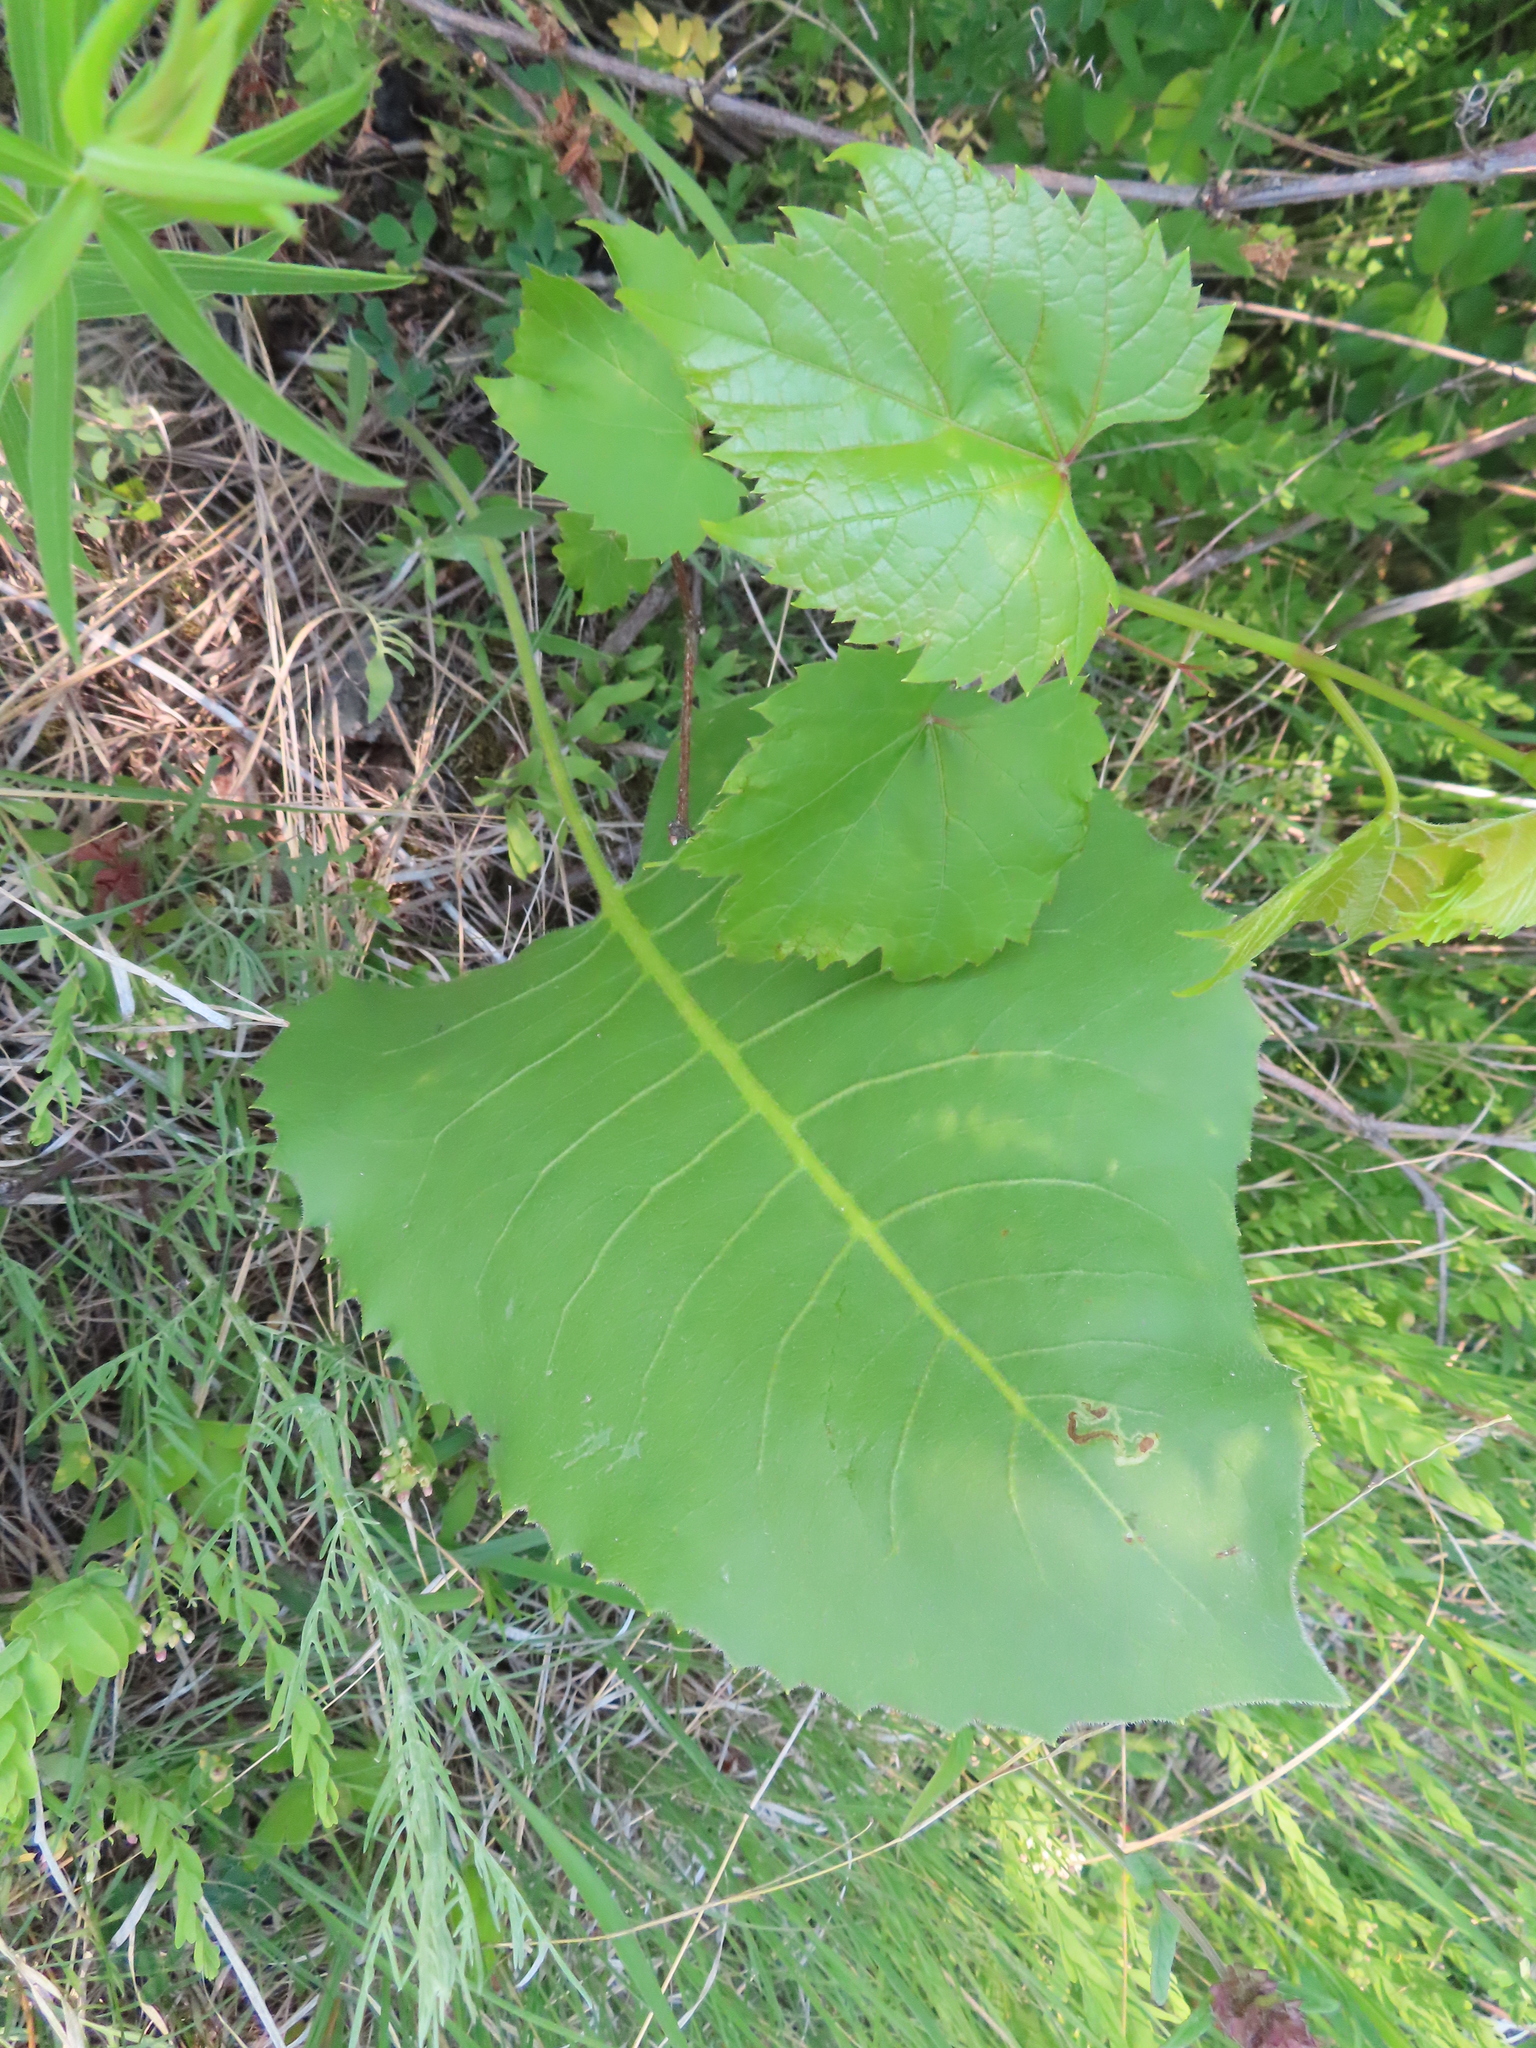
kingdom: Plantae
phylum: Tracheophyta
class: Magnoliopsida
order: Asterales
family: Asteraceae
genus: Silphium
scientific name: Silphium terebinthinaceum
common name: Basal-leaf rosinweed
